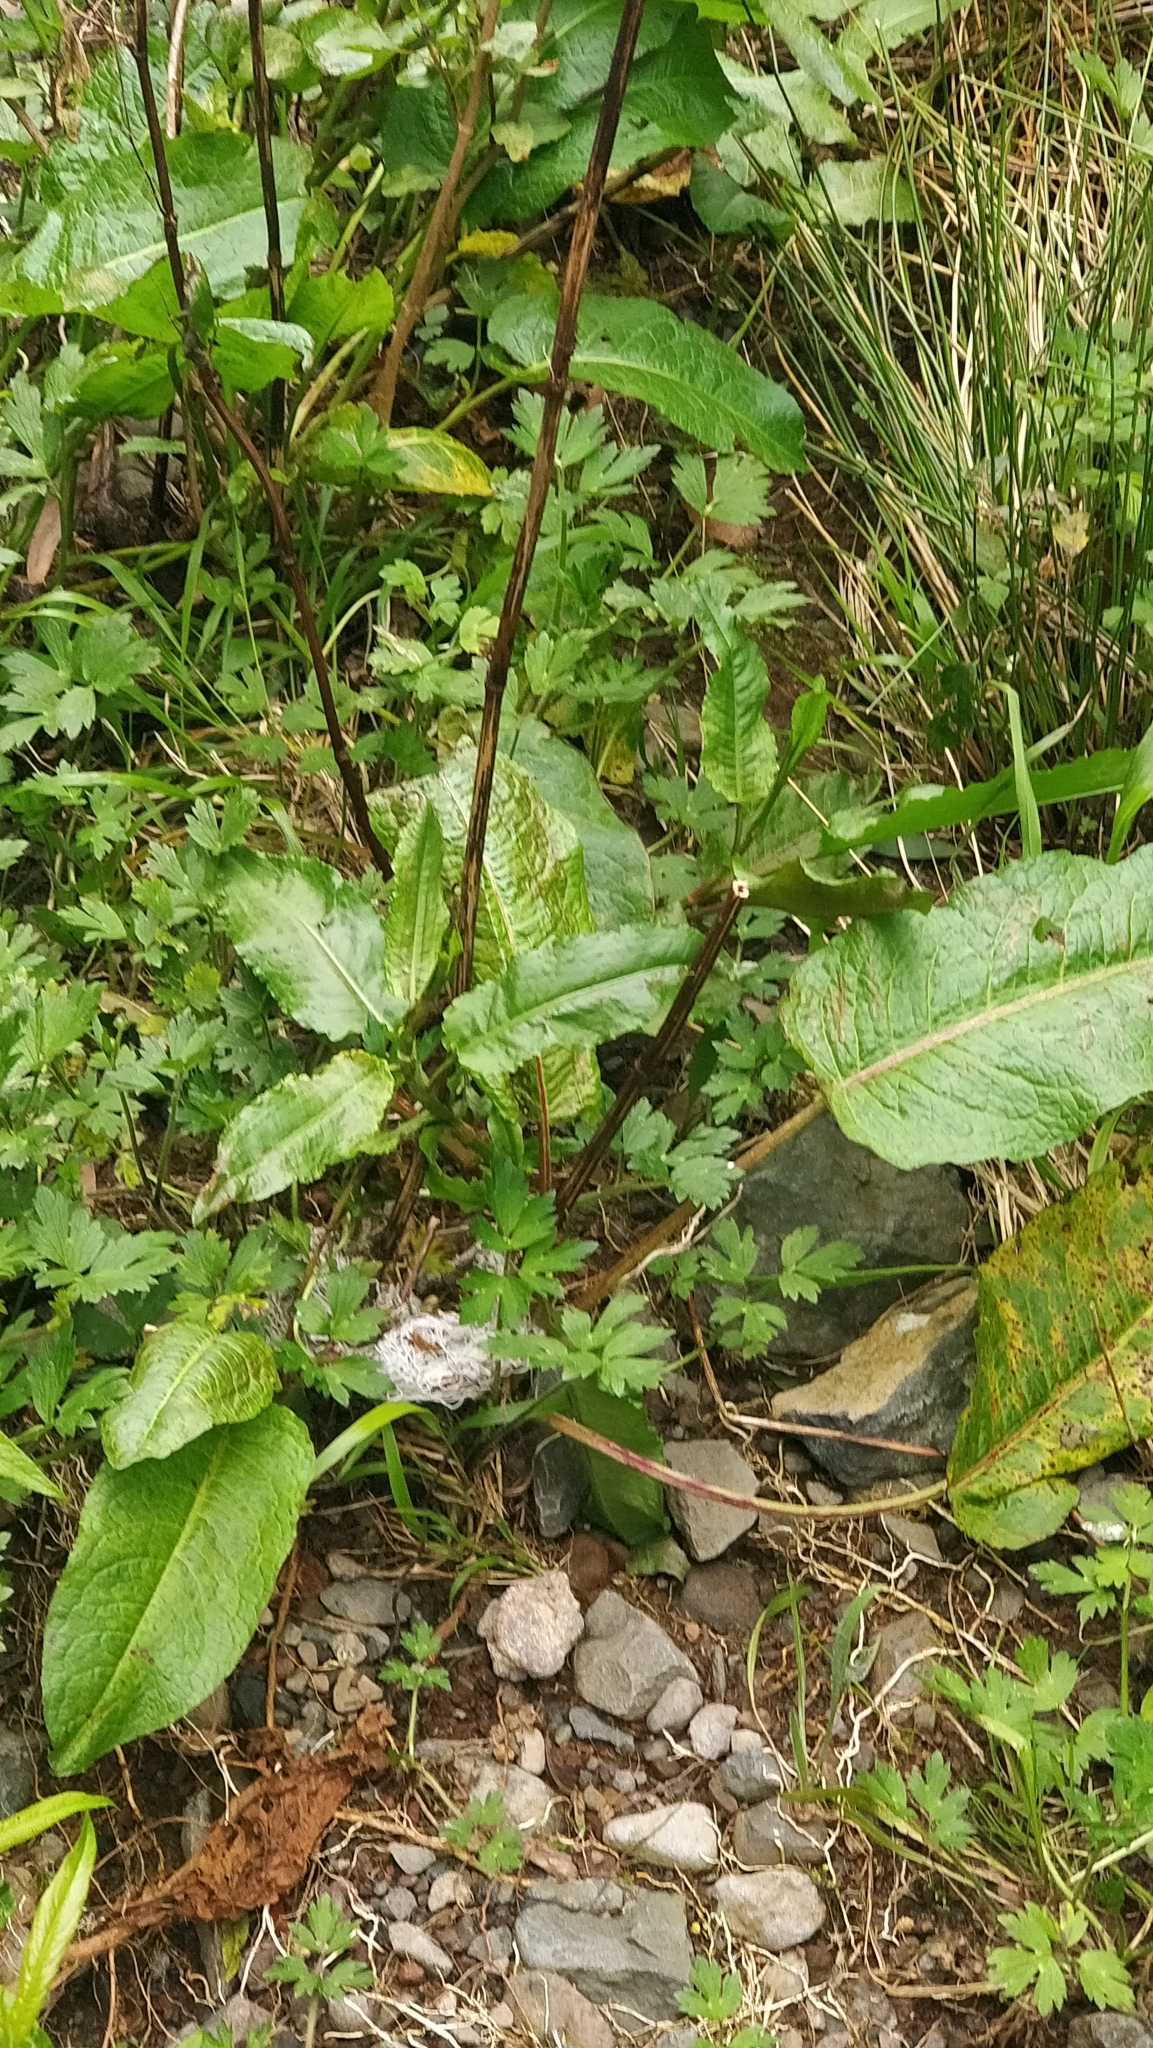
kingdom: Plantae
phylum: Tracheophyta
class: Magnoliopsida
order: Caryophyllales
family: Polygonaceae
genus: Rumex
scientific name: Rumex obtusifolius
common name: Bitter dock
